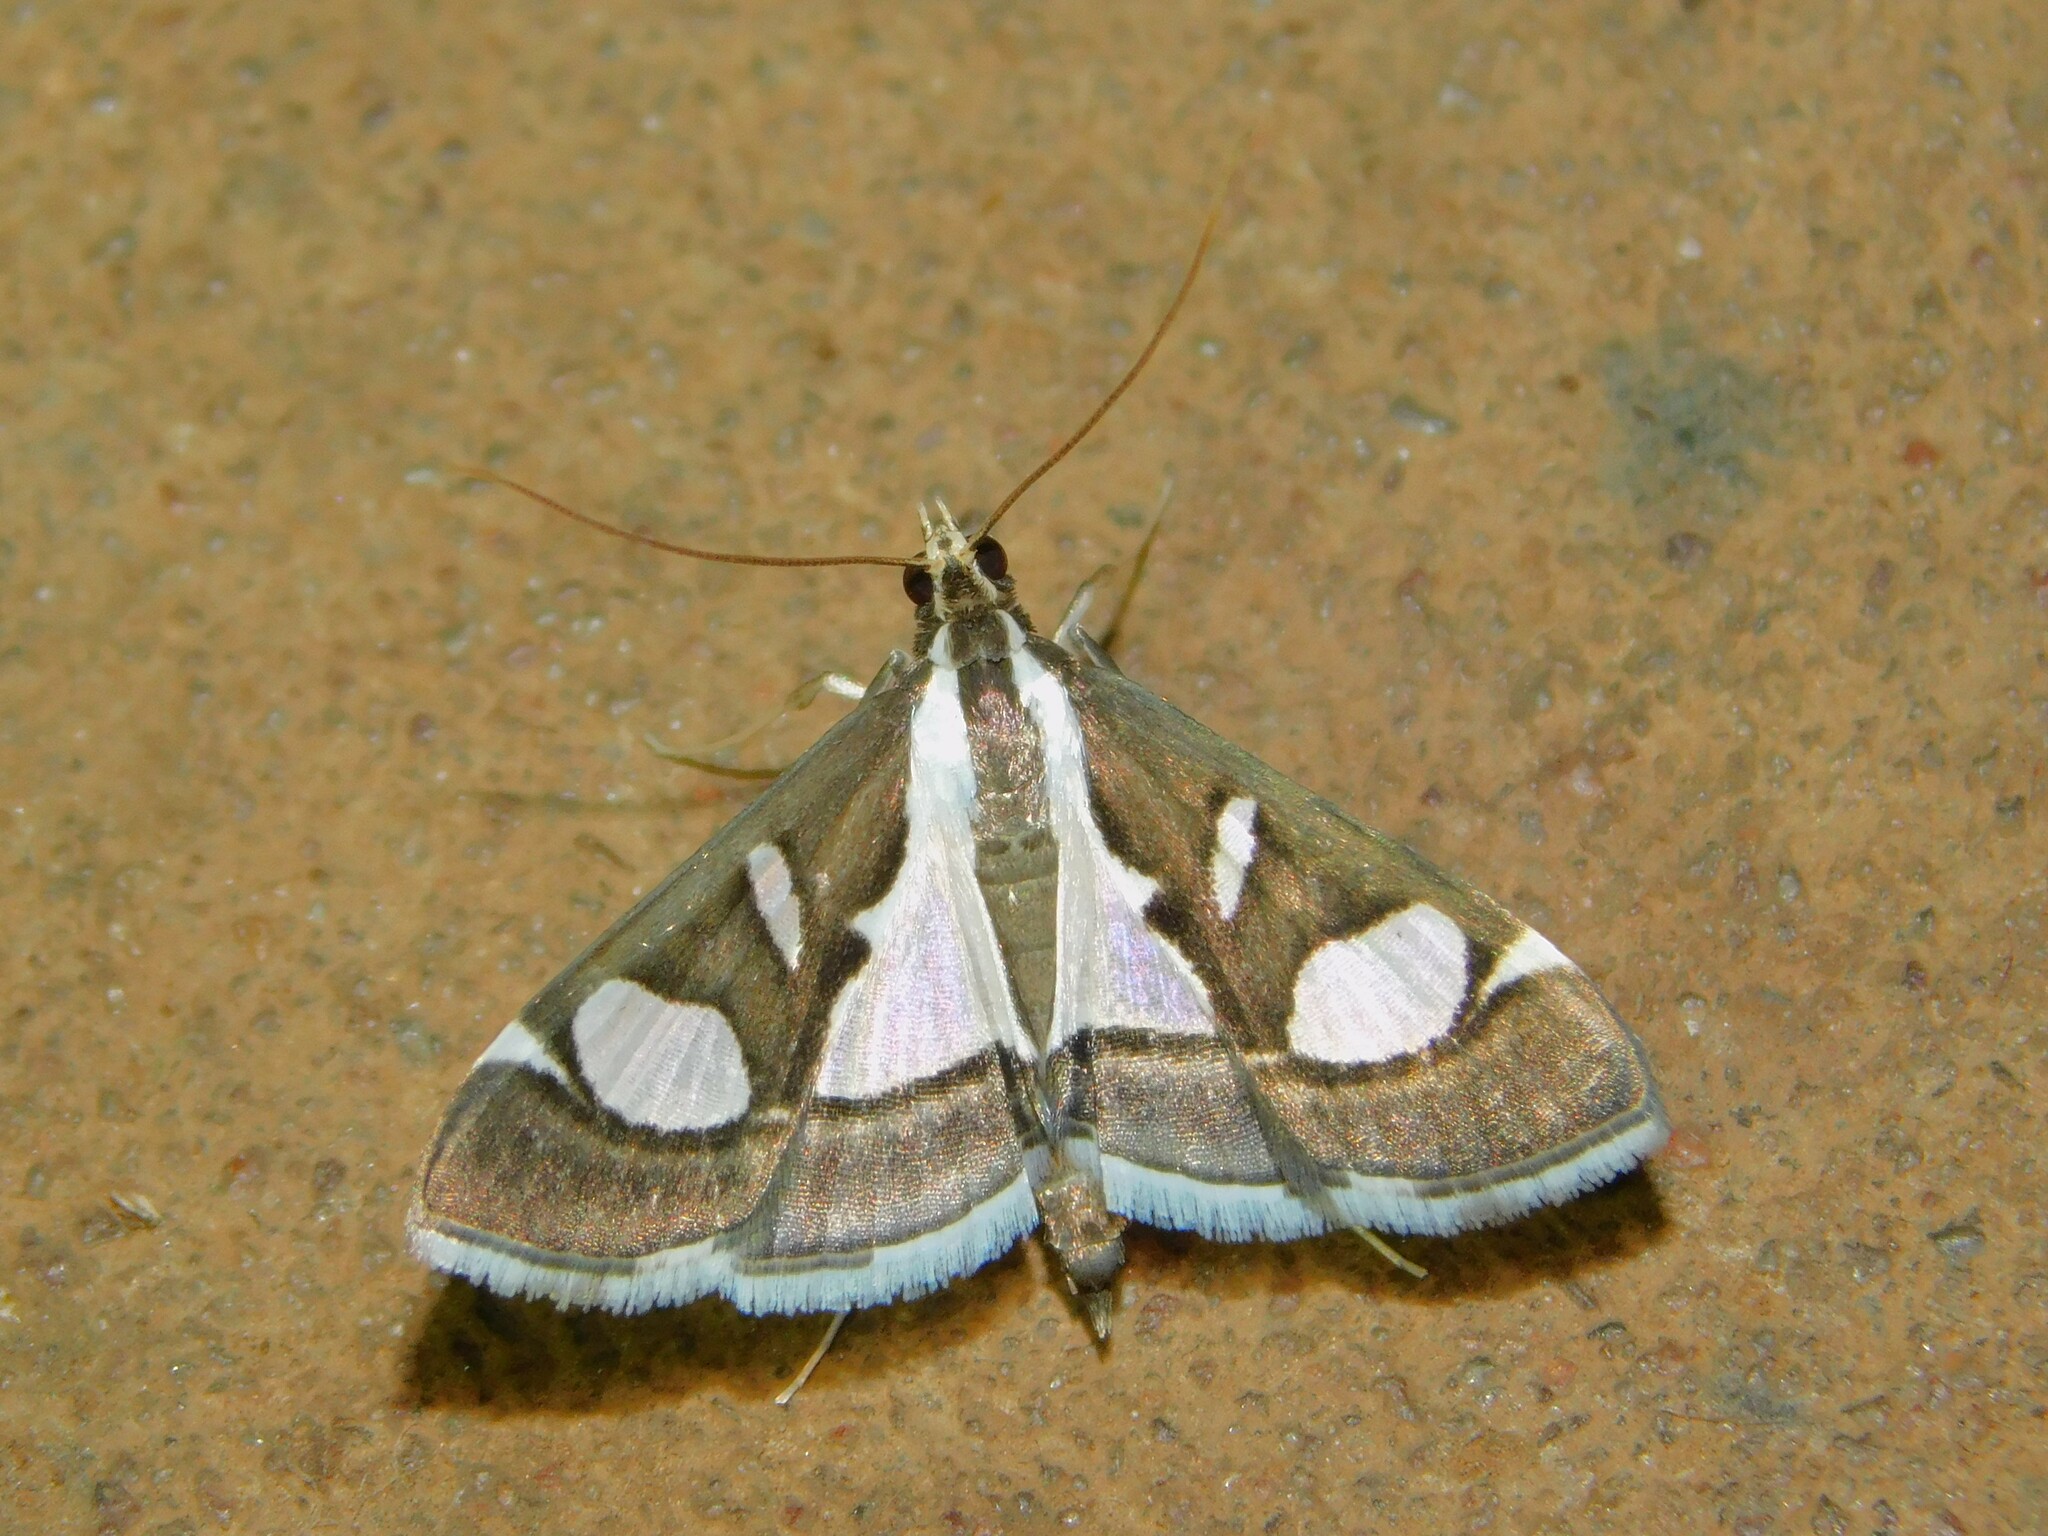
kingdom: Animalia
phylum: Arthropoda
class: Insecta
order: Lepidoptera
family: Crambidae
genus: Glyphodes
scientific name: Glyphodes bicolor
